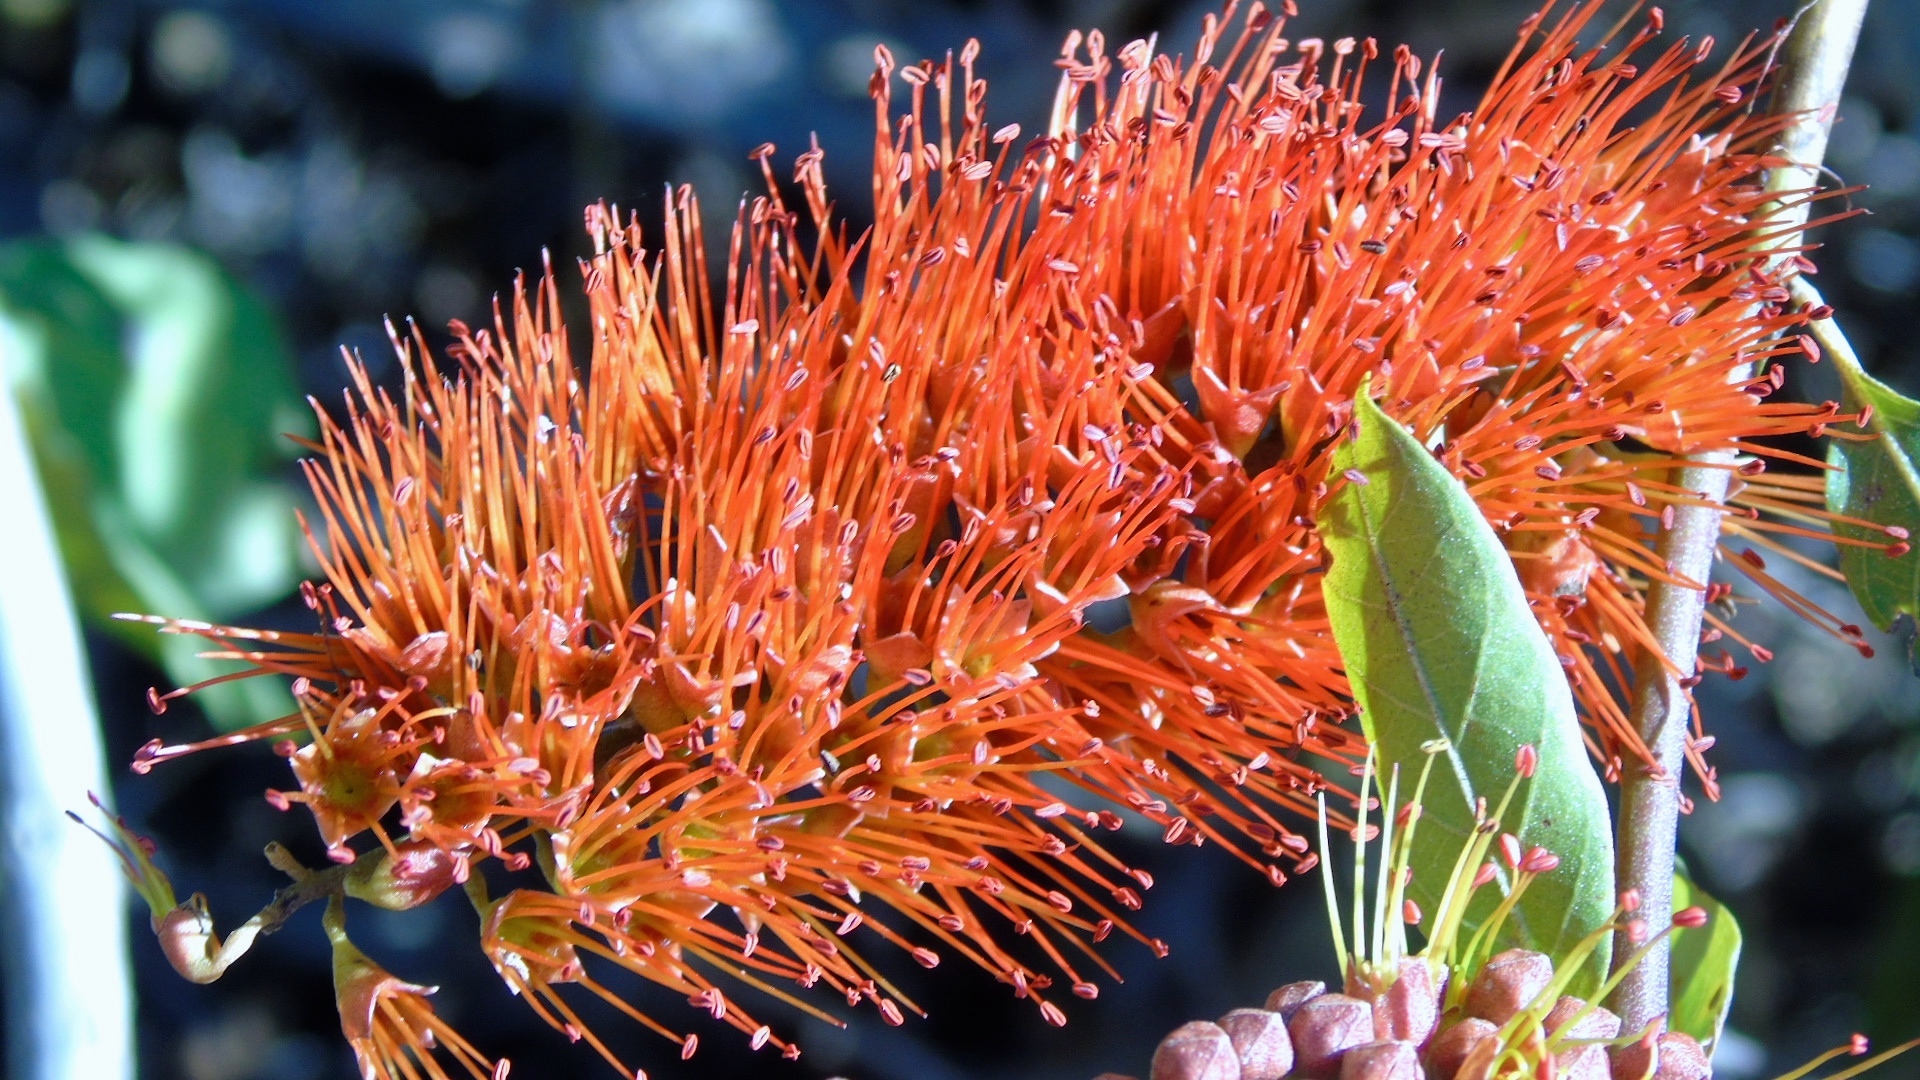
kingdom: Plantae
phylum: Tracheophyta
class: Magnoliopsida
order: Myrtales
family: Combretaceae
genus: Combretum
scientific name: Combretum farinosum
